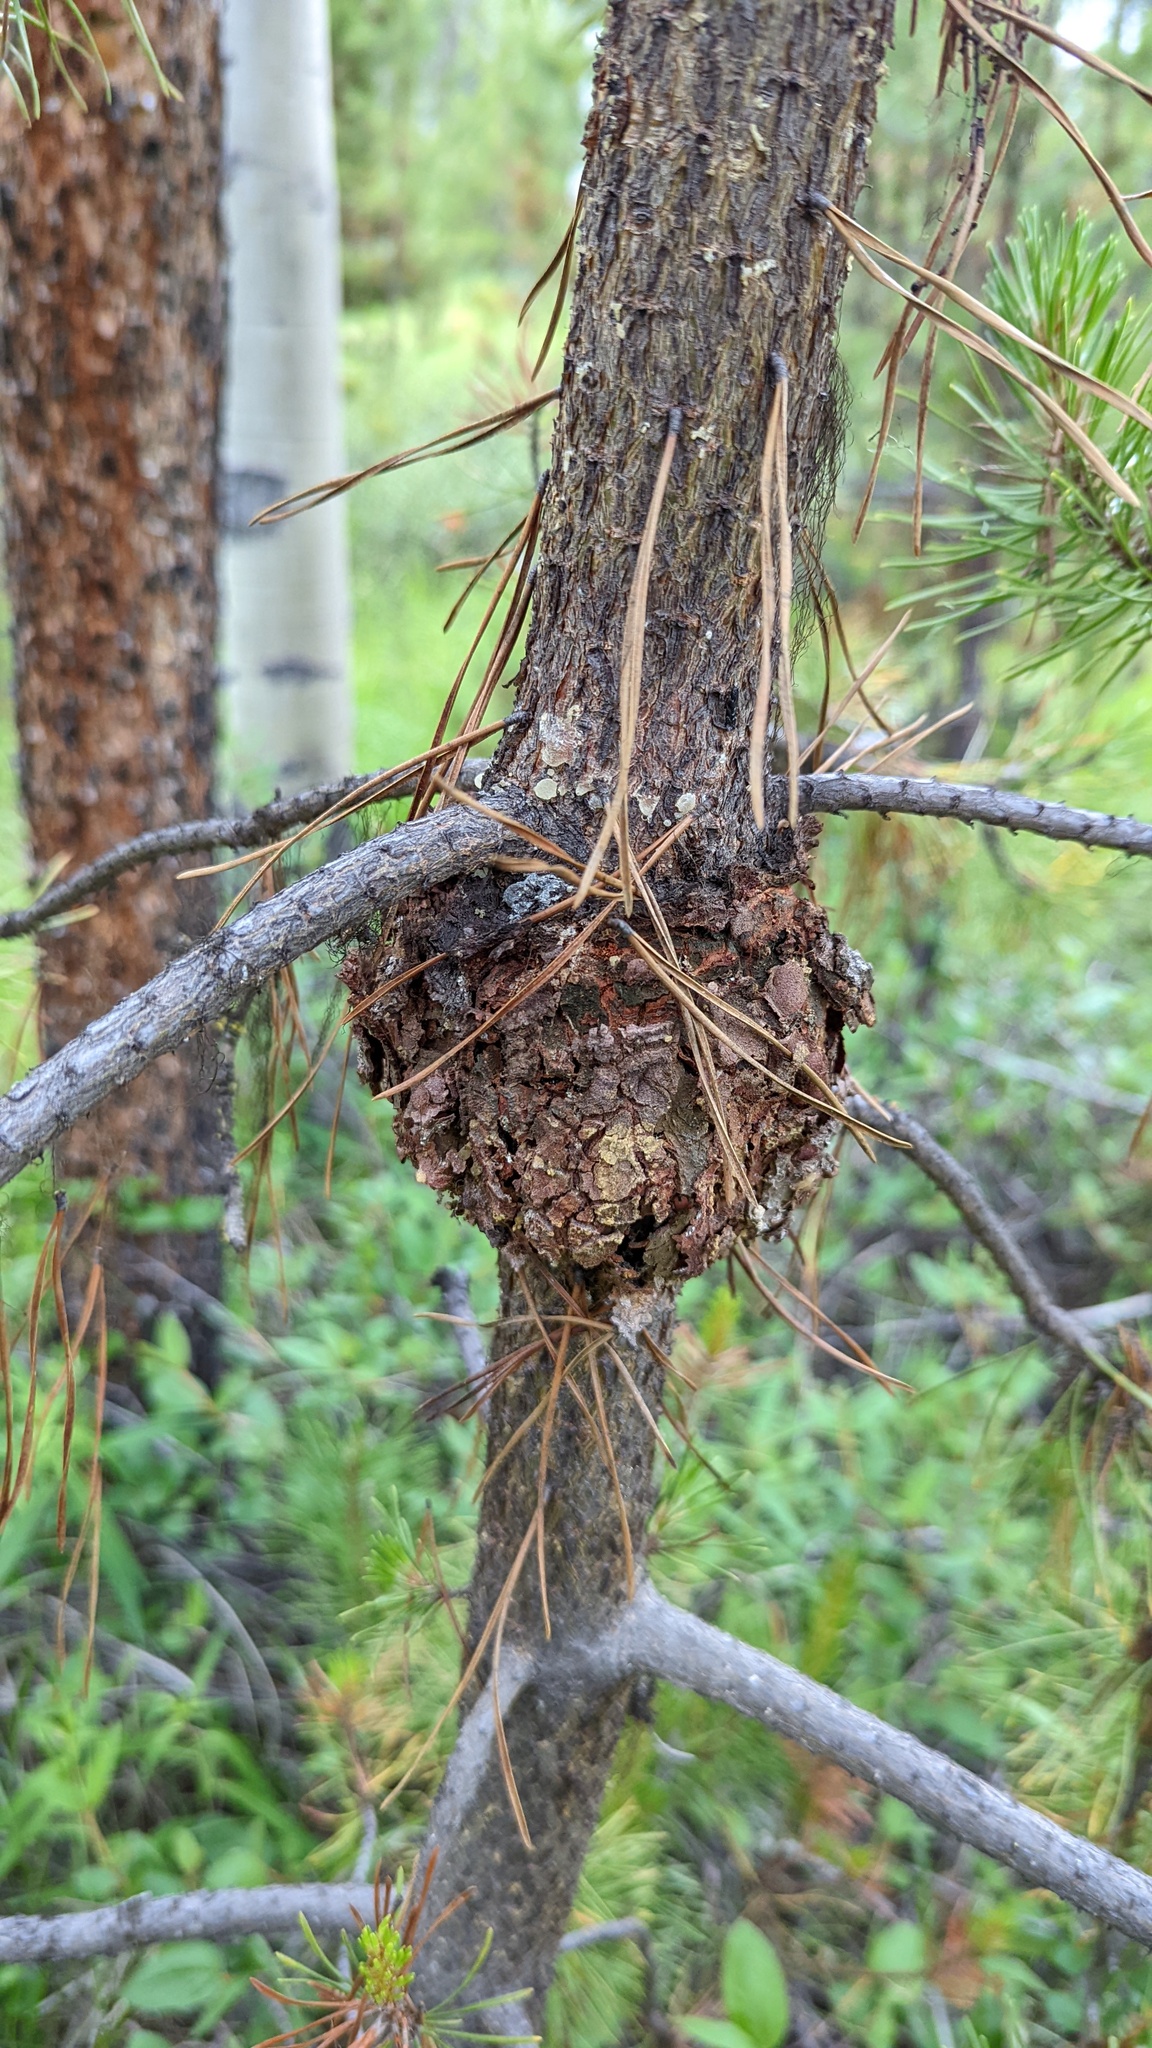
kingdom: Fungi
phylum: Basidiomycota
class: Pucciniomycetes
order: Pucciniales
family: Cronartiaceae
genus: Cronartium
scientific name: Cronartium harknessii
